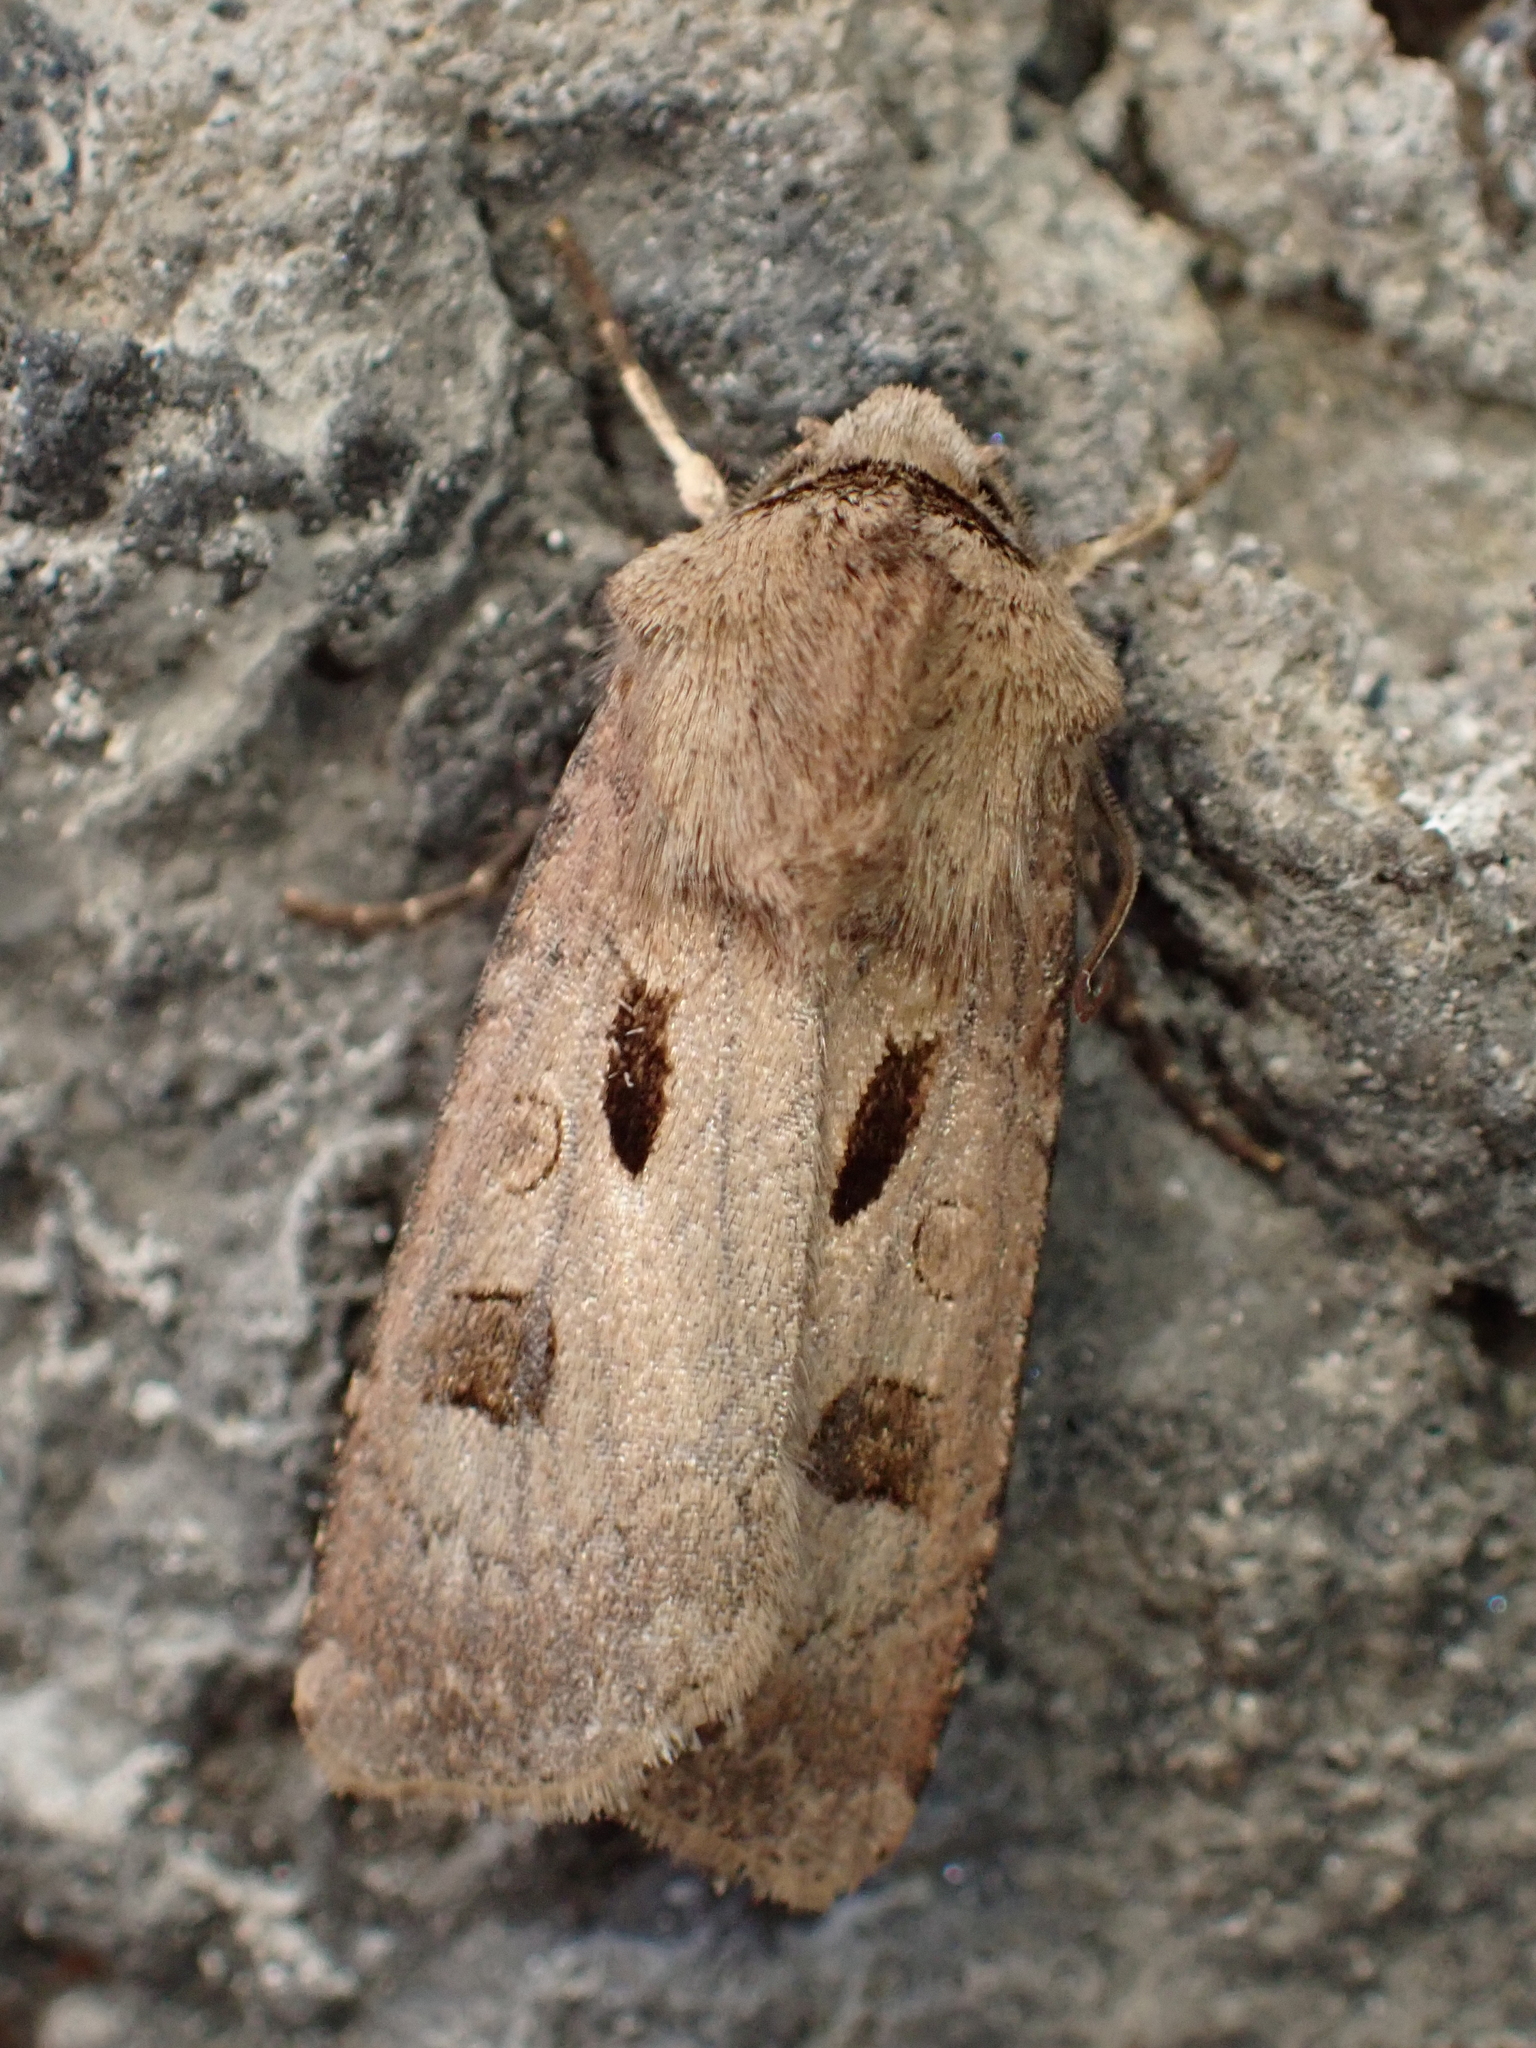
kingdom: Animalia
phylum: Arthropoda
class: Insecta
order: Lepidoptera
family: Noctuidae
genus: Agrotis
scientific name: Agrotis exclamationis
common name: Heart and dart
